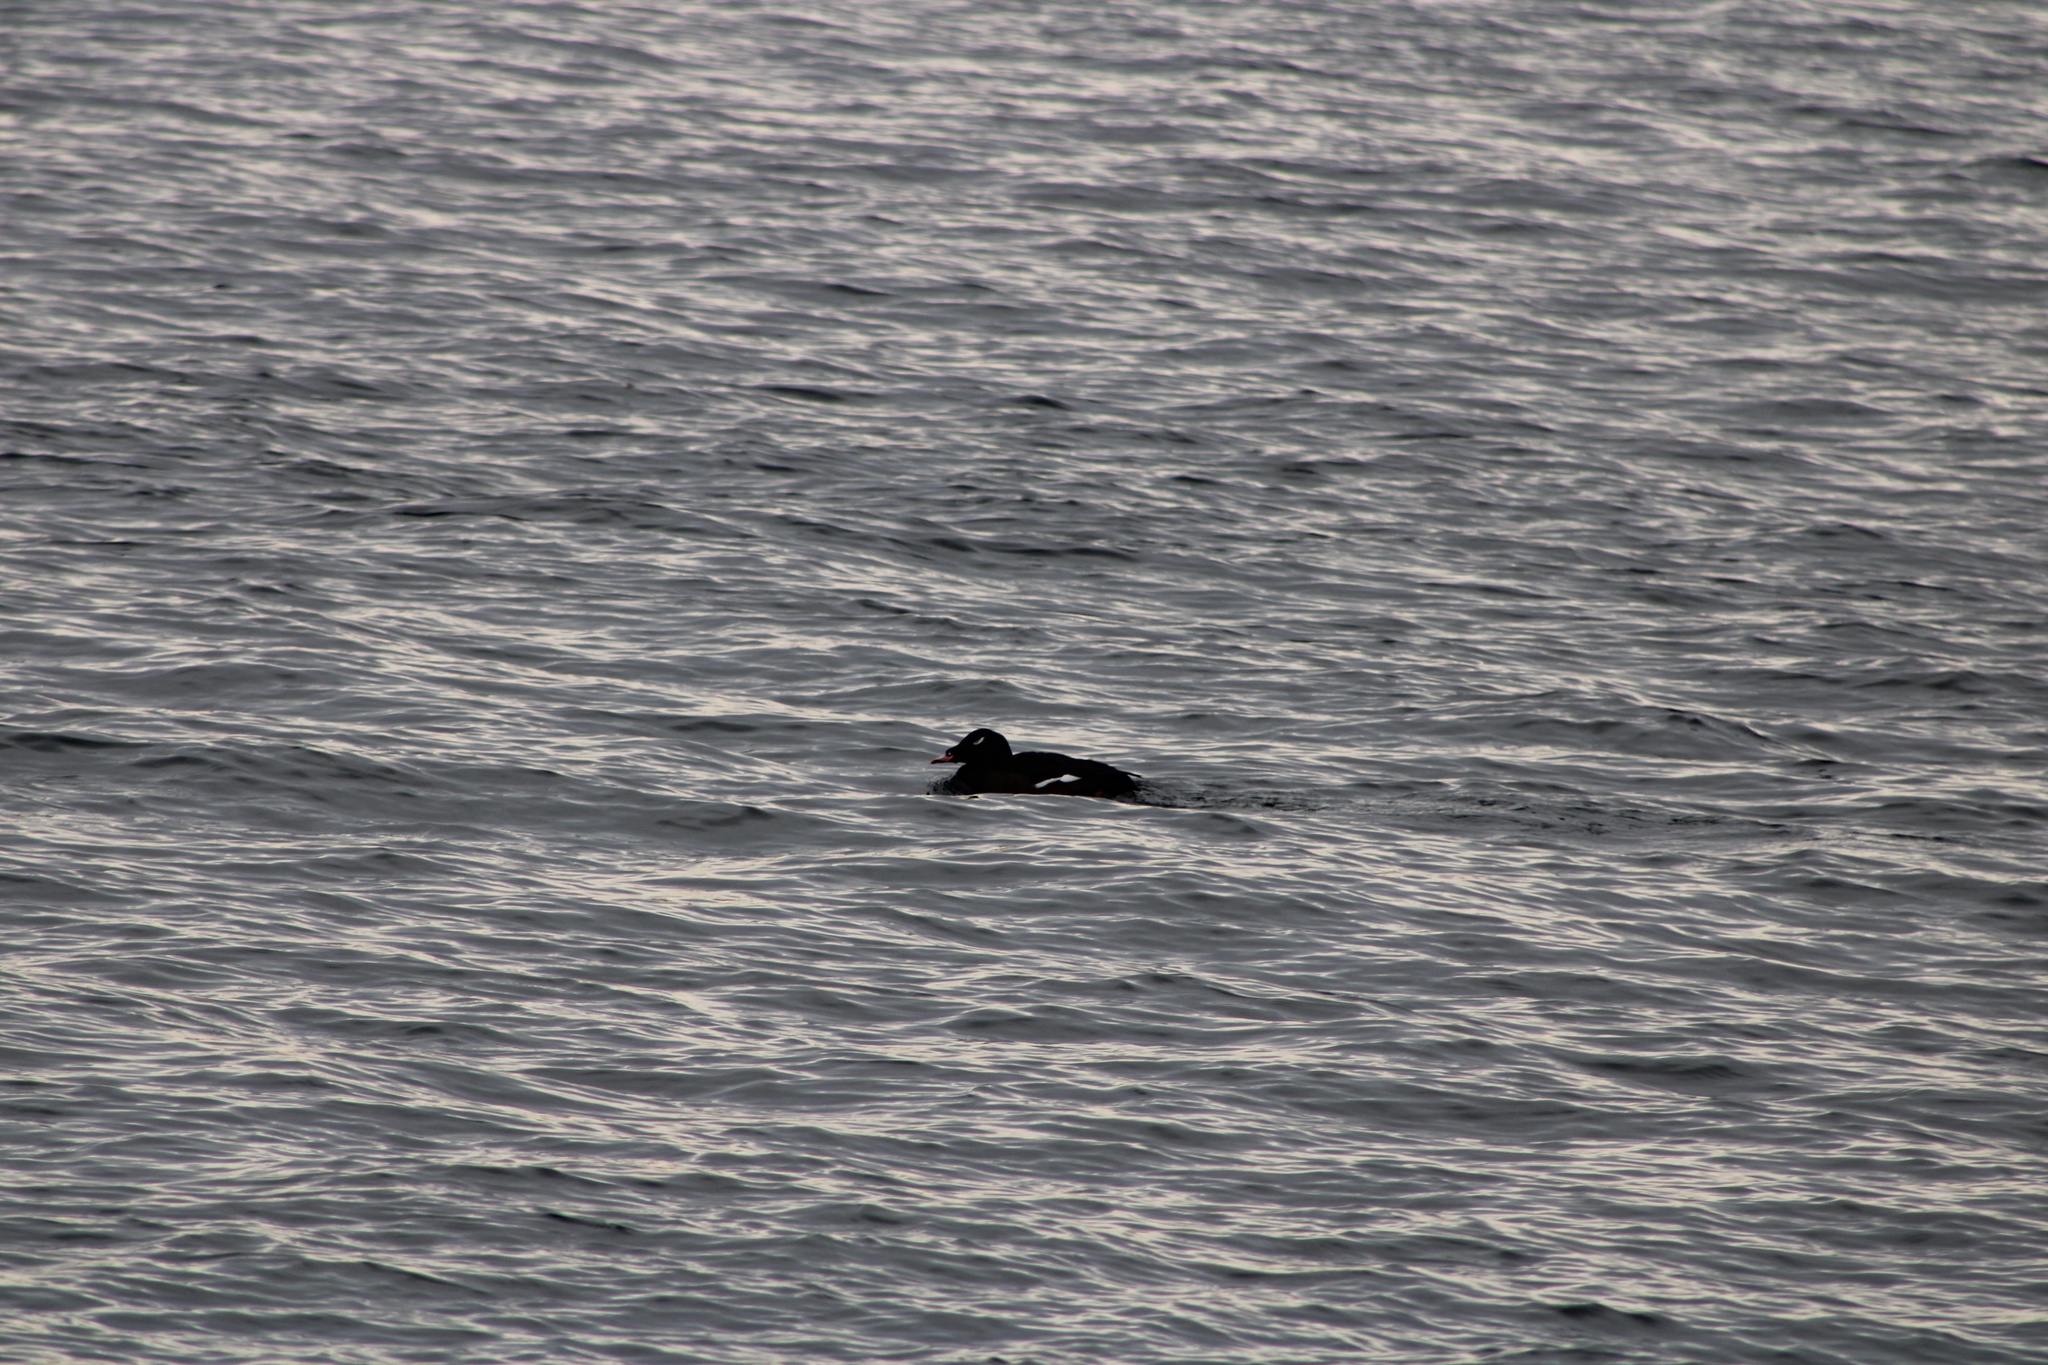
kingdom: Animalia
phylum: Chordata
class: Aves
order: Anseriformes
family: Anatidae
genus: Melanitta
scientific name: Melanitta deglandi
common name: White-winged scoter
